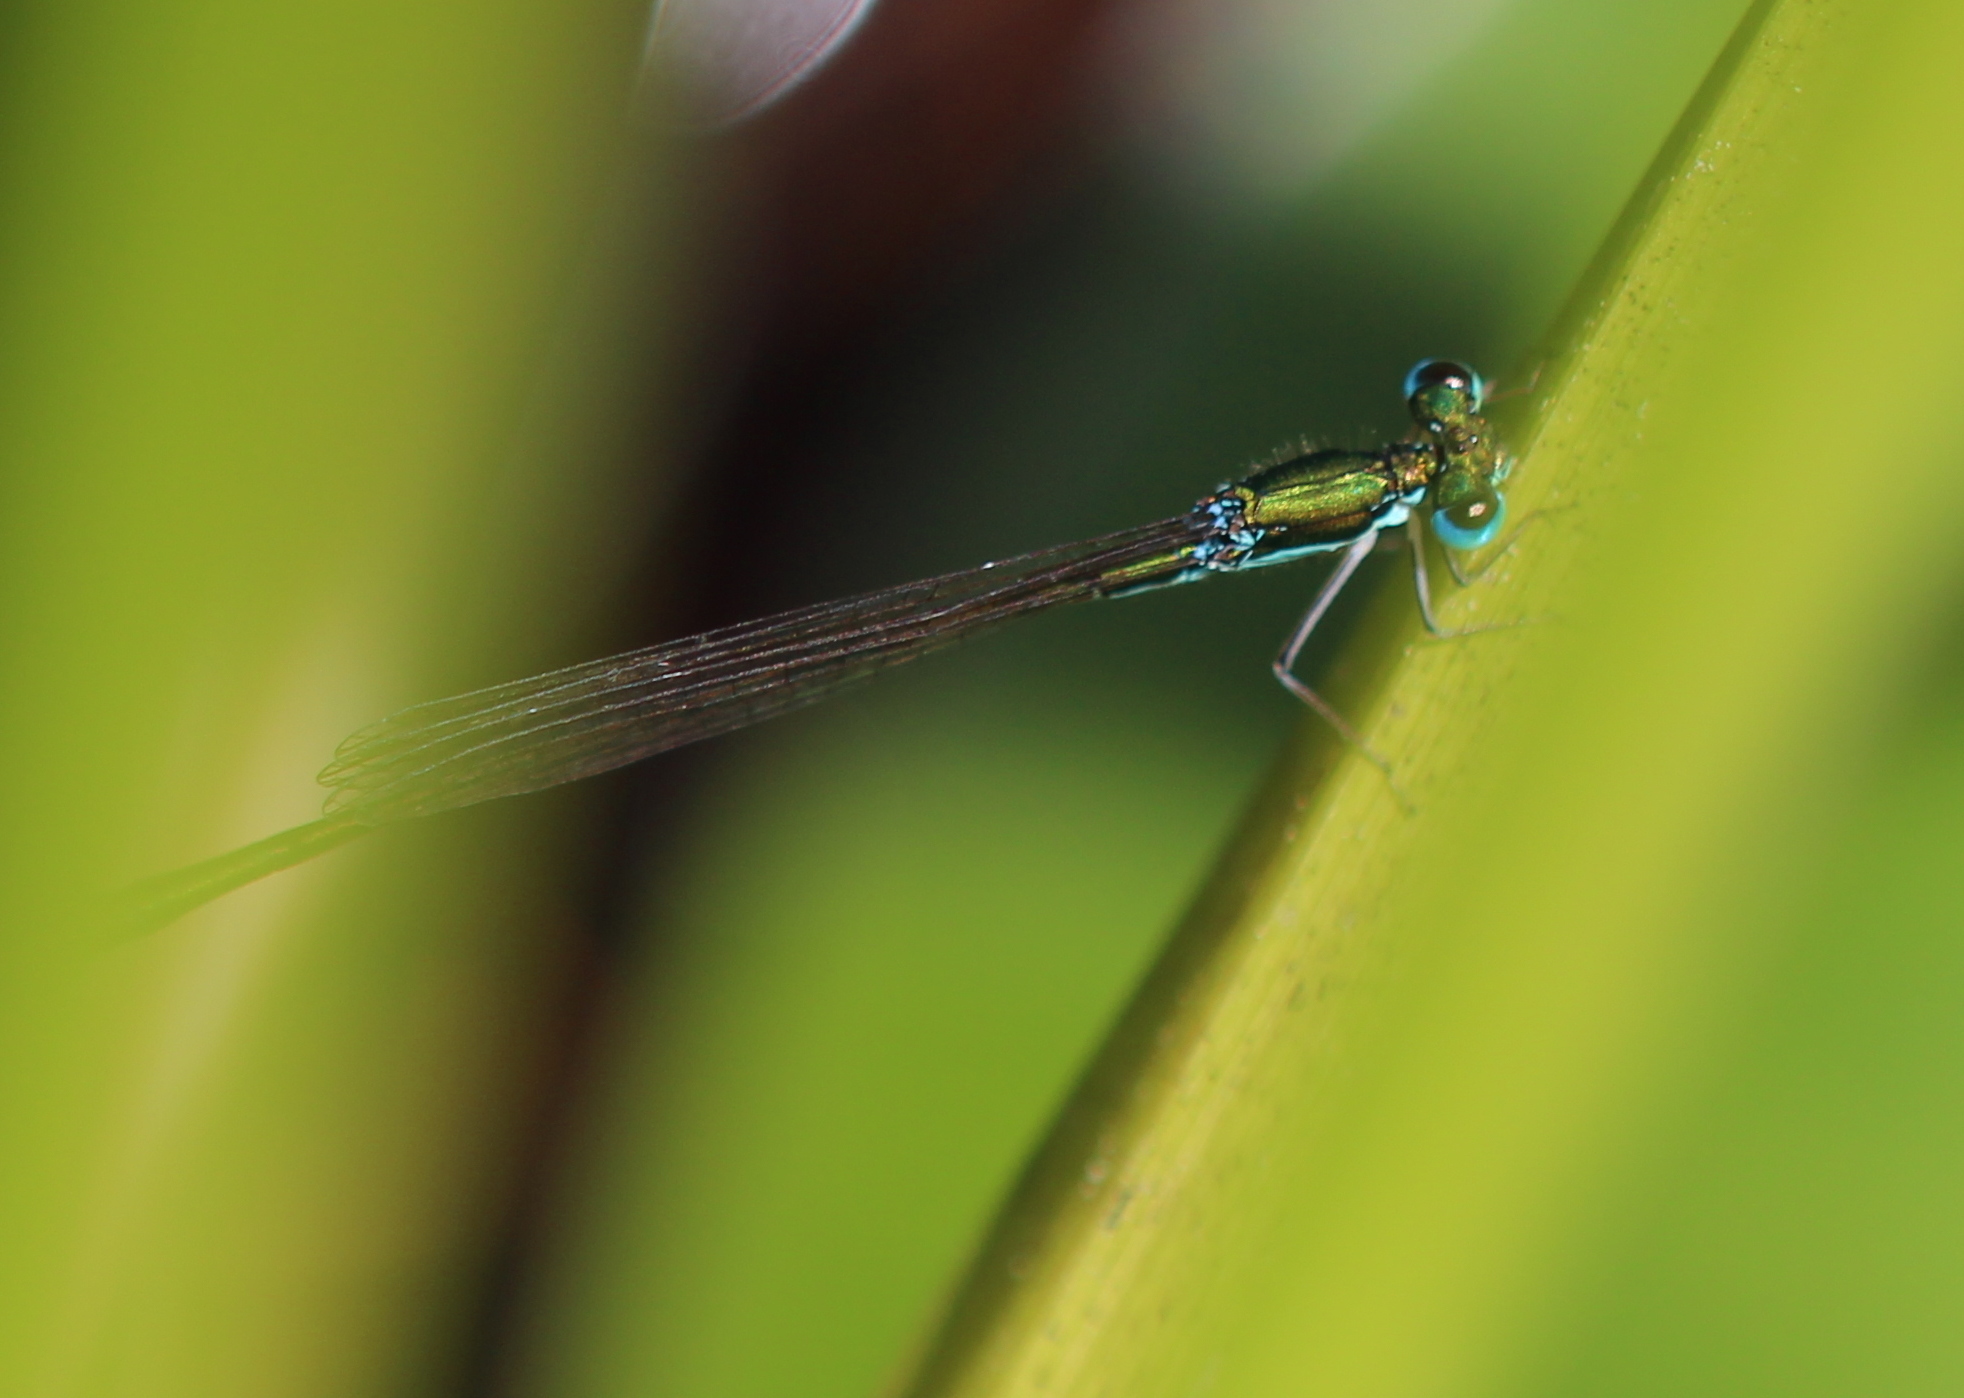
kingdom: Animalia
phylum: Arthropoda
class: Insecta
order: Odonata
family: Coenagrionidae
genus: Nehalennia
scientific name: Nehalennia irene
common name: Sedge sprite
